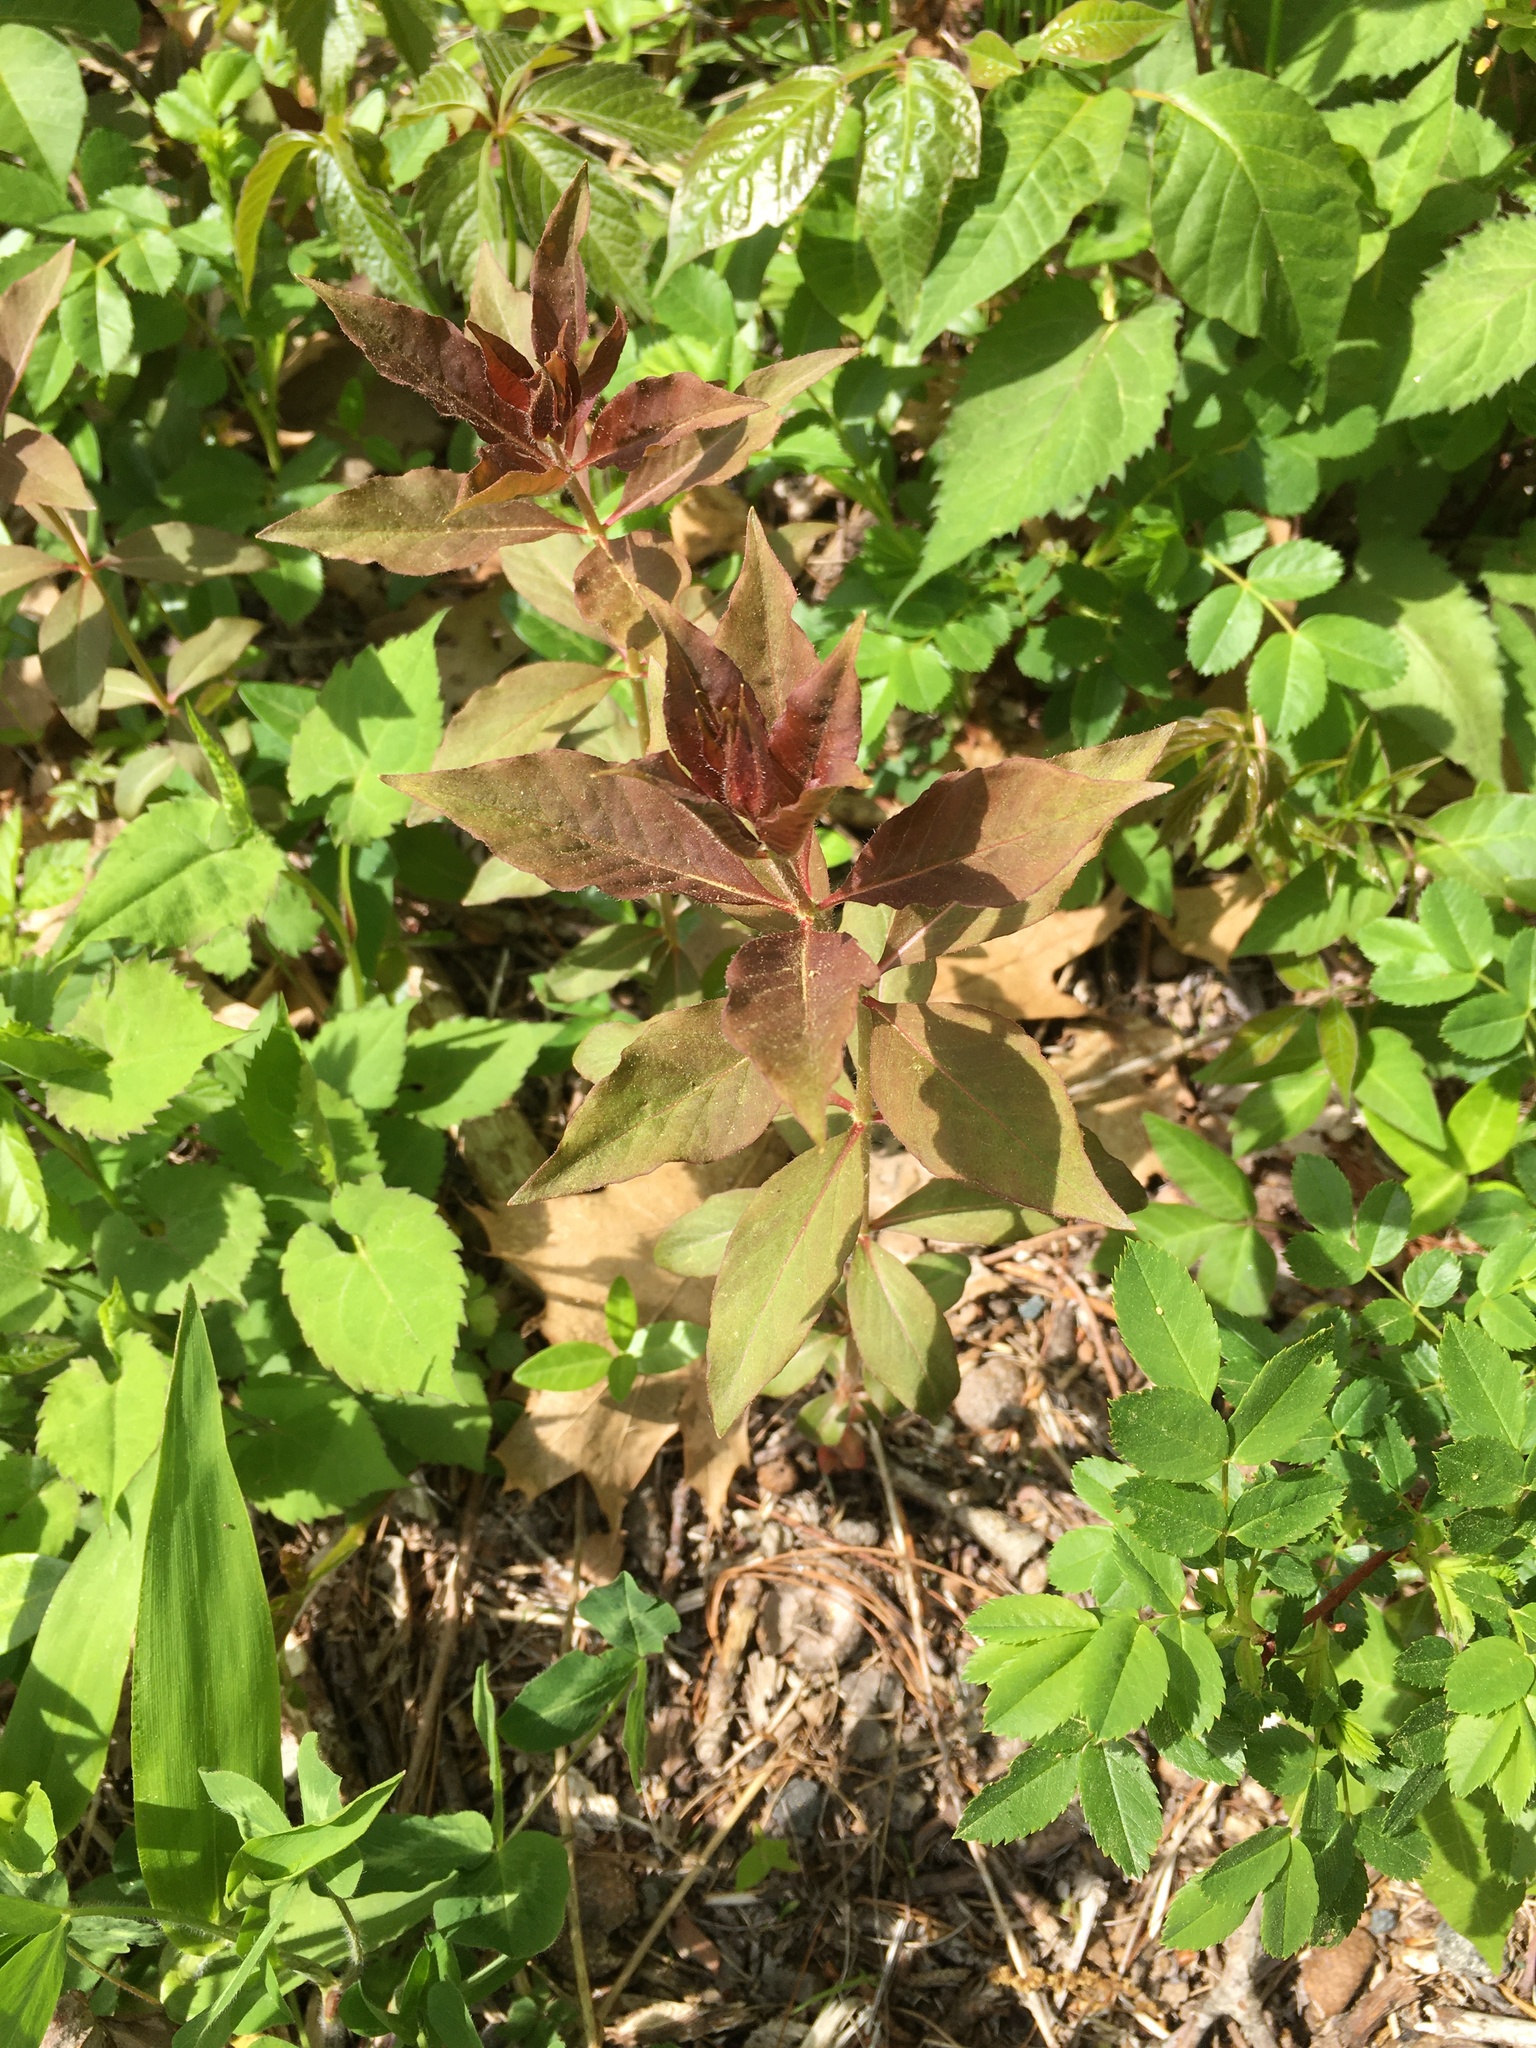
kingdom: Plantae
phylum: Tracheophyta
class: Magnoliopsida
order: Ericales
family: Primulaceae
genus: Lysimachia
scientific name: Lysimachia quadrifolia
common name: Whorled loosestrife
